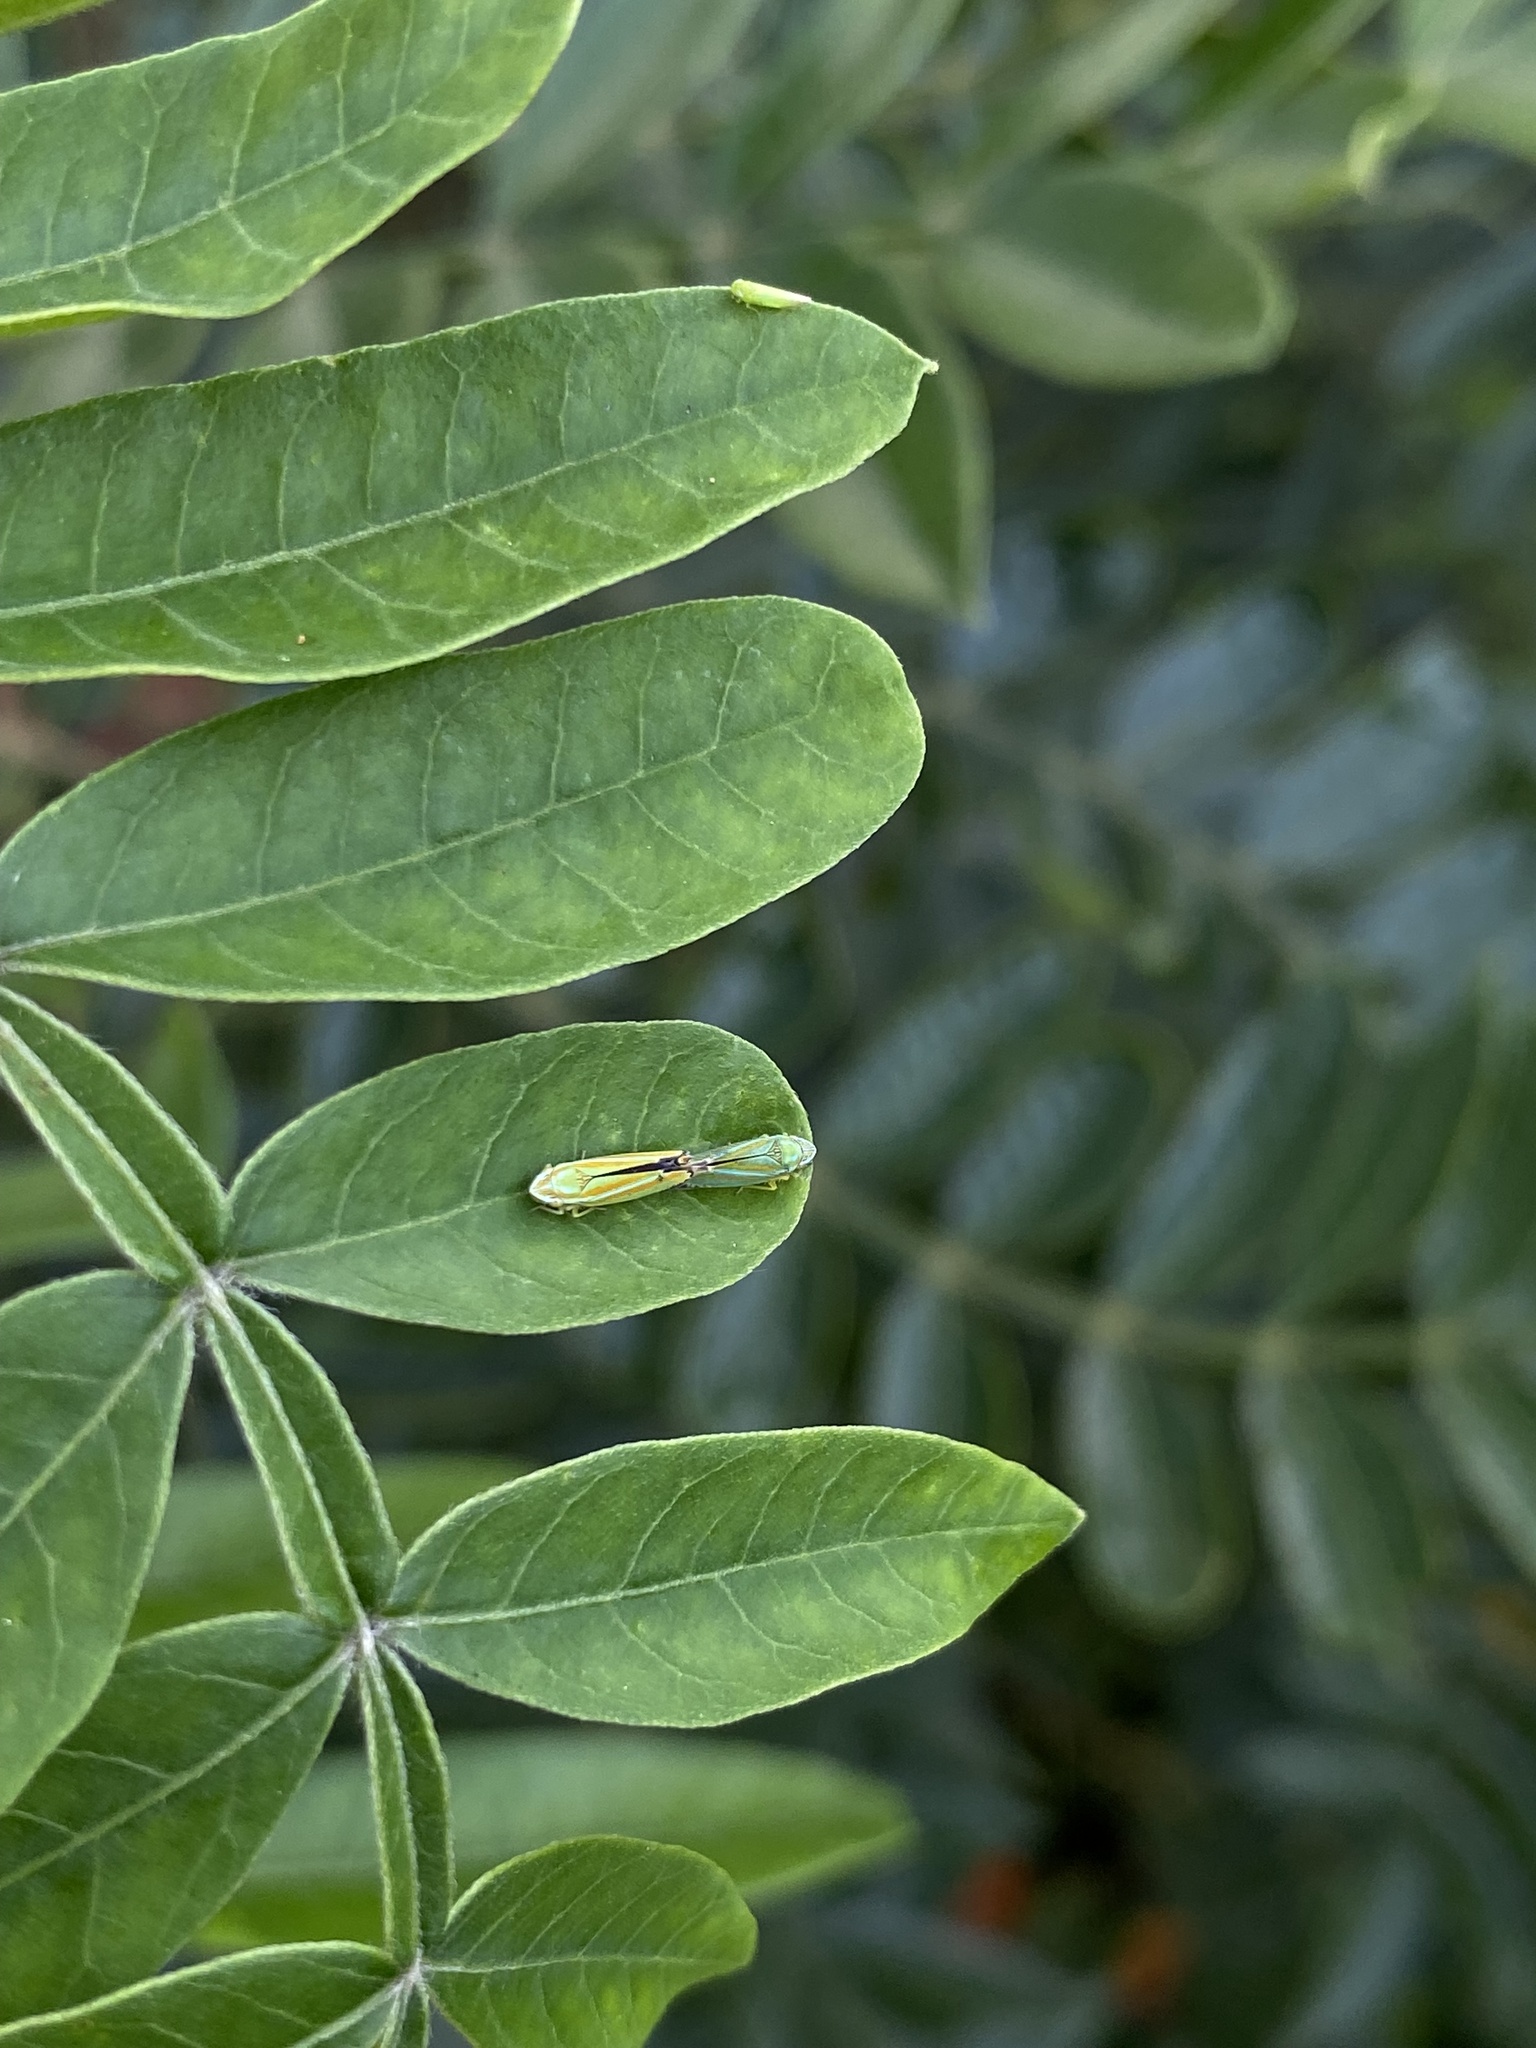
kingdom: Animalia
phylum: Arthropoda
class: Insecta
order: Hemiptera
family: Cicadellidae
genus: Graphocephala
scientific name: Graphocephala versuta
